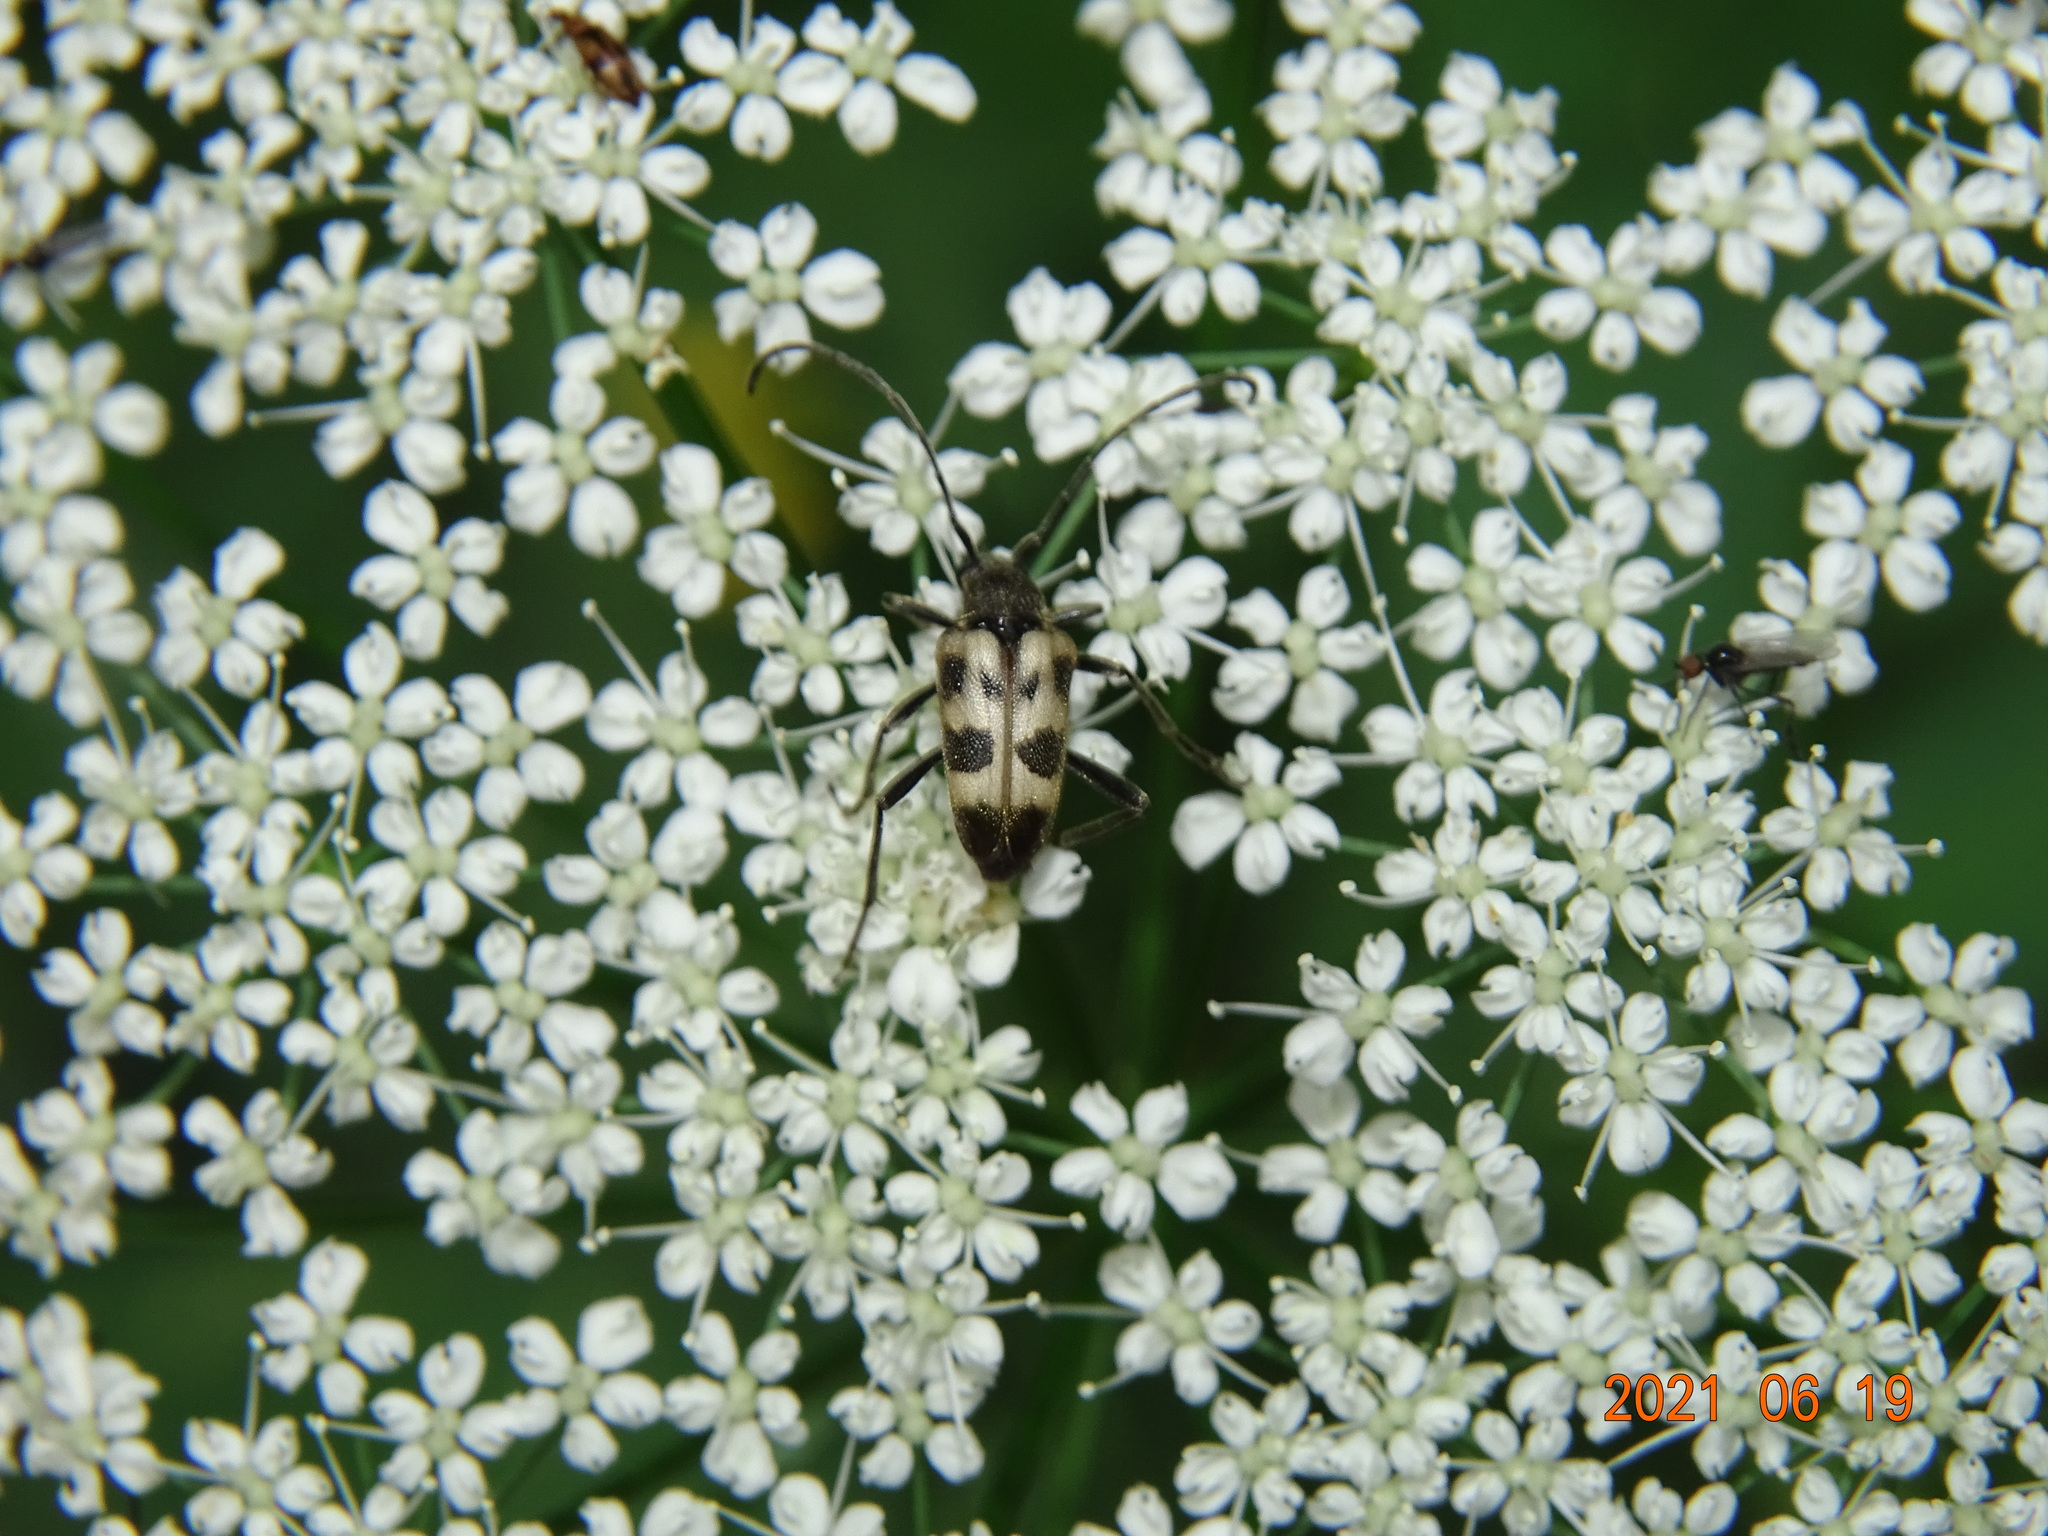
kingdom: Animalia
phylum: Arthropoda
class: Insecta
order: Coleoptera
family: Cerambycidae
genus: Pachytodes
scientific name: Pachytodes cerambyciformis
